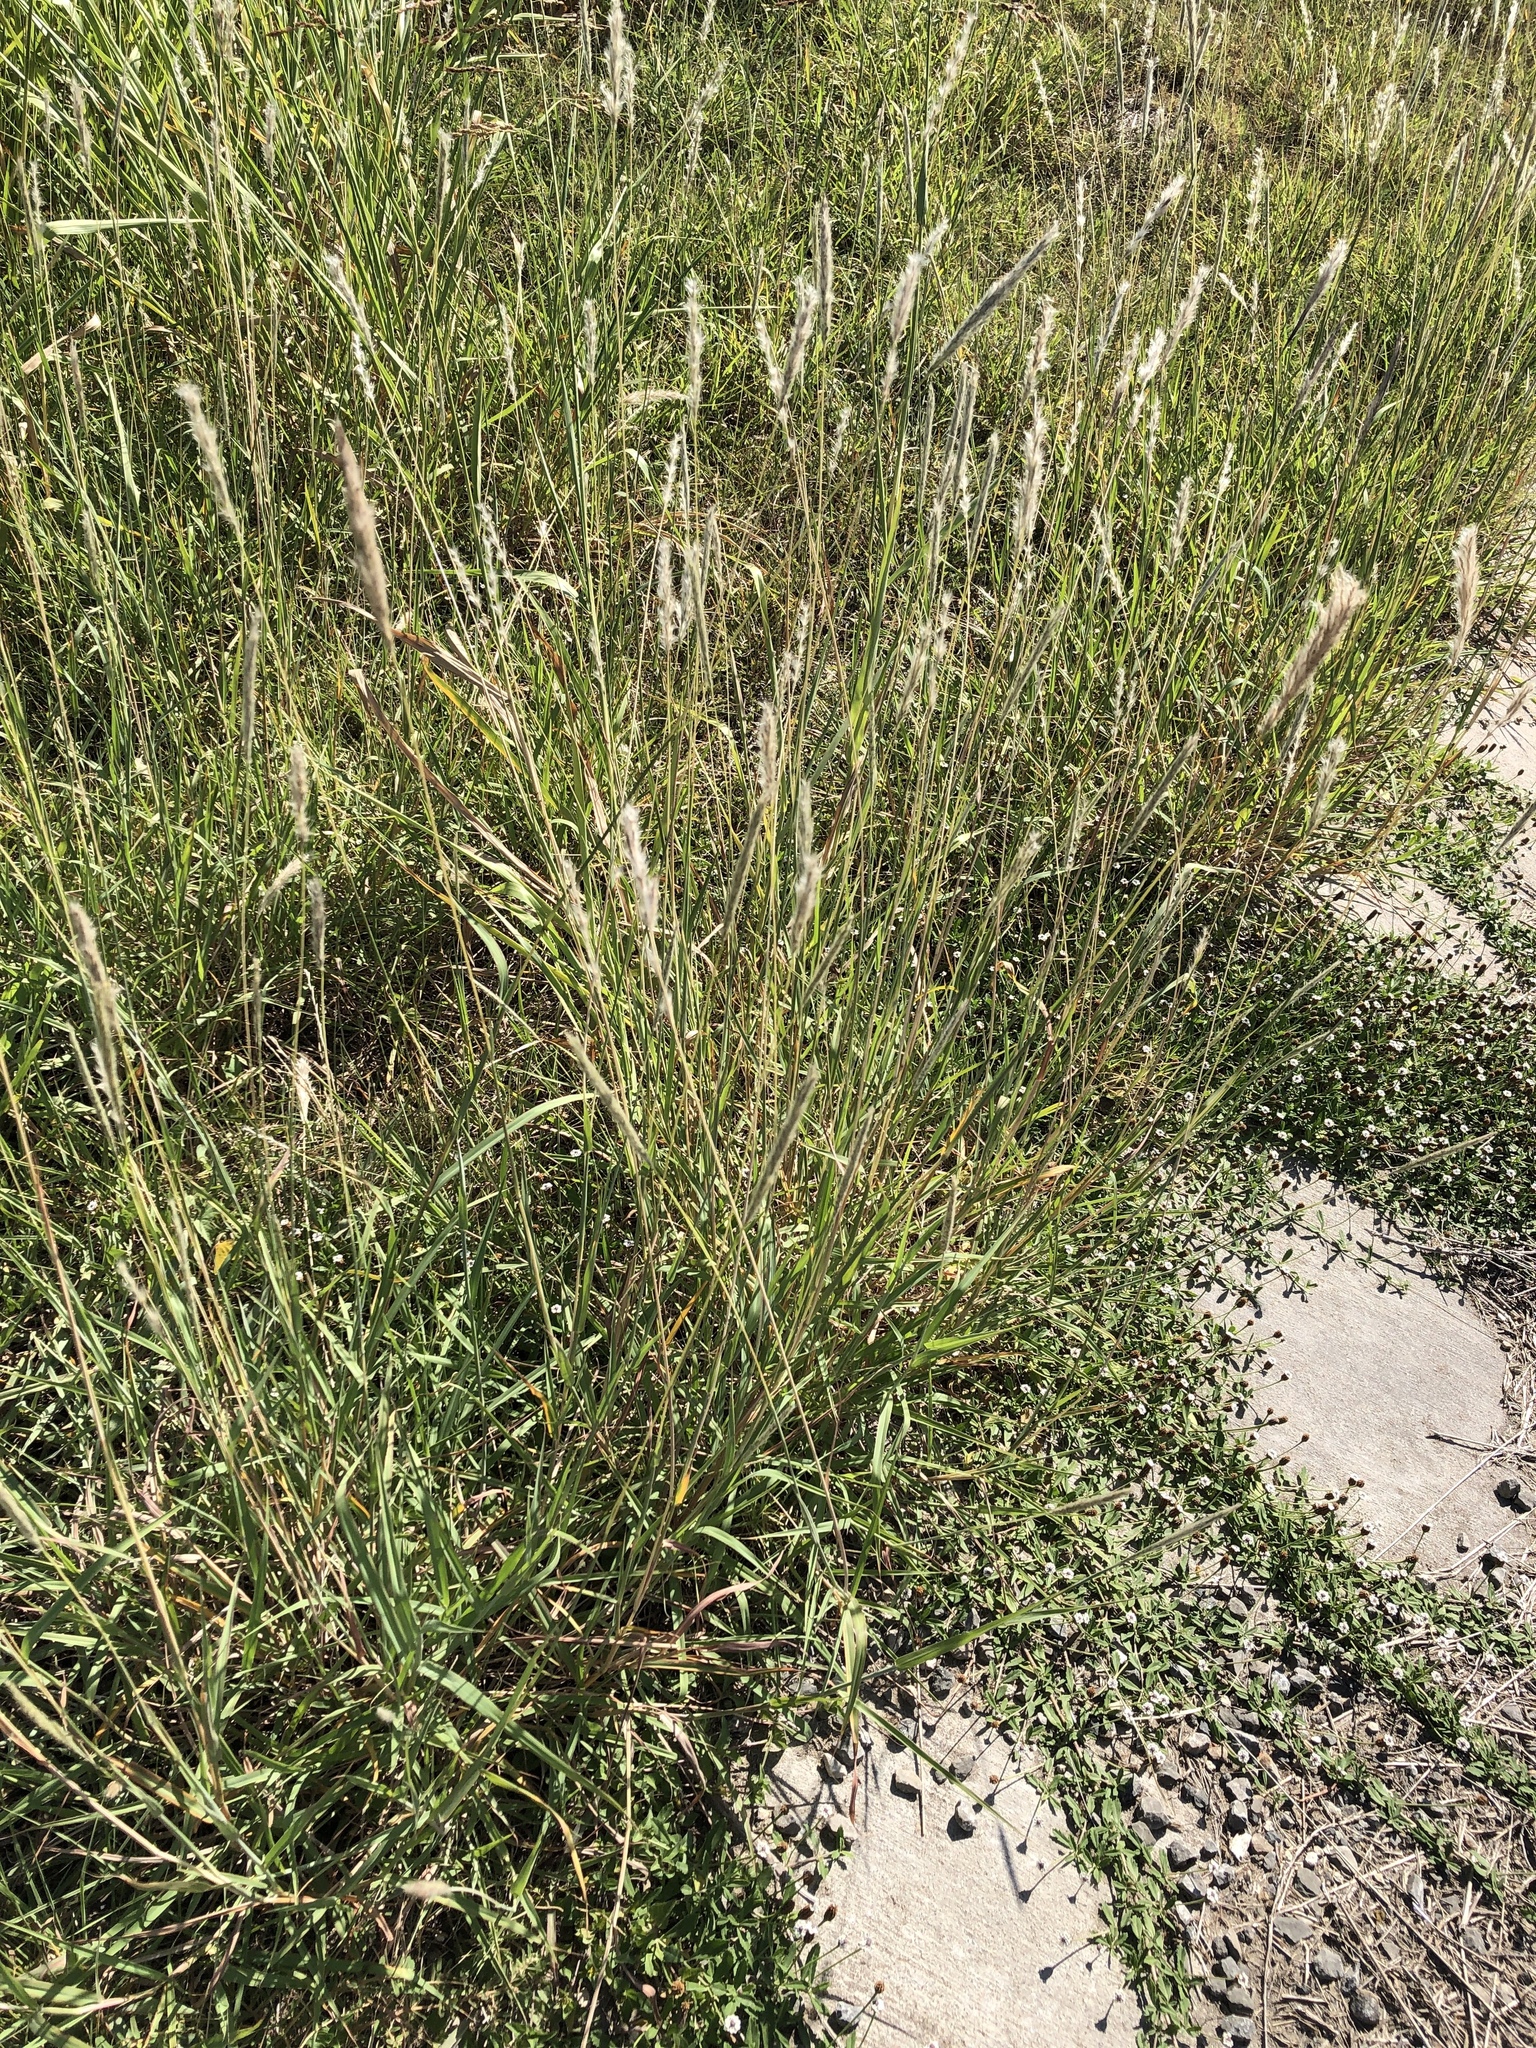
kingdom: Plantae
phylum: Tracheophyta
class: Liliopsida
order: Poales
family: Poaceae
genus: Bothriochloa
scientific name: Bothriochloa torreyana
